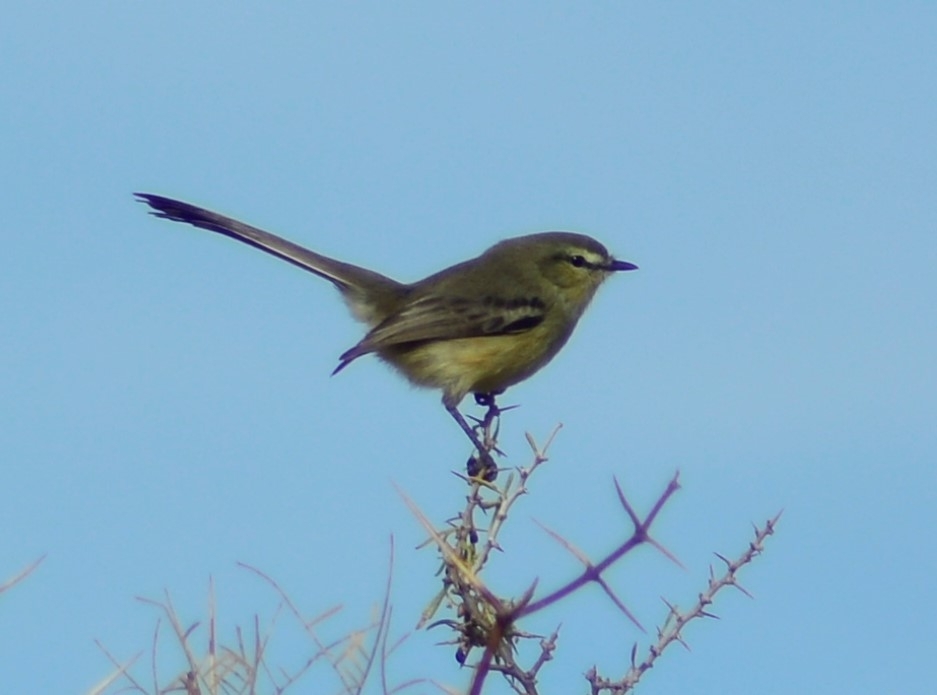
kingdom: Animalia
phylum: Chordata
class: Aves
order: Passeriformes
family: Tyrannidae
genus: Stigmatura
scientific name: Stigmatura budytoides
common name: Greater wagtail-tyrant
